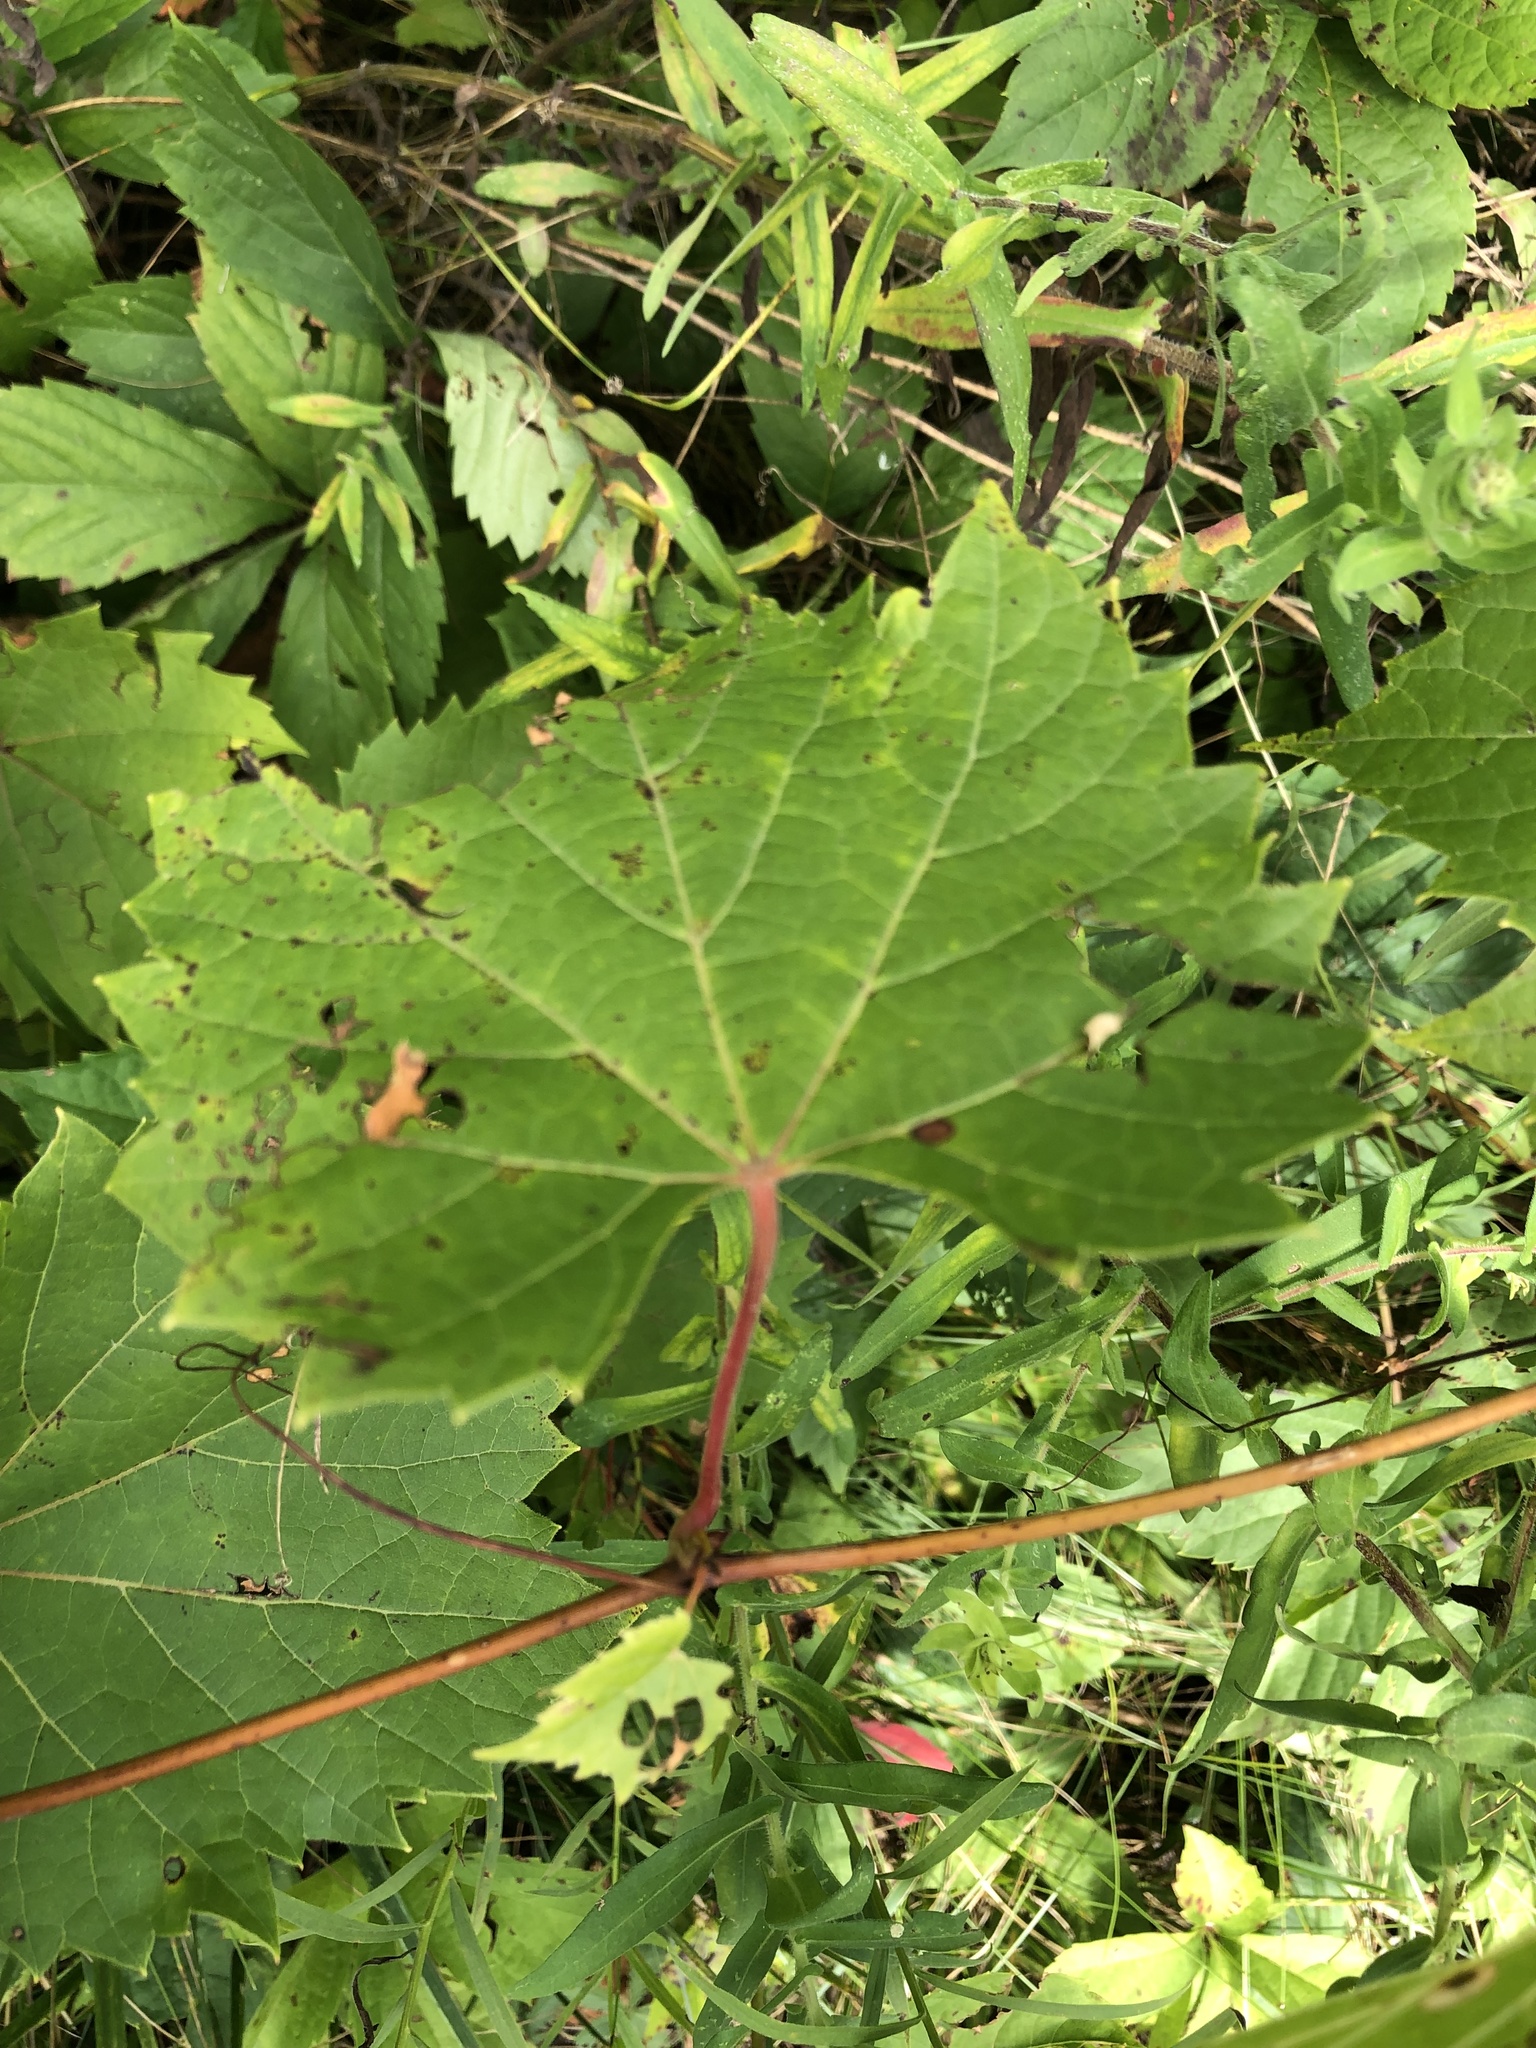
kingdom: Plantae
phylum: Tracheophyta
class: Magnoliopsida
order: Vitales
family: Vitaceae
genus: Vitis
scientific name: Vitis riparia
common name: Frost grape
